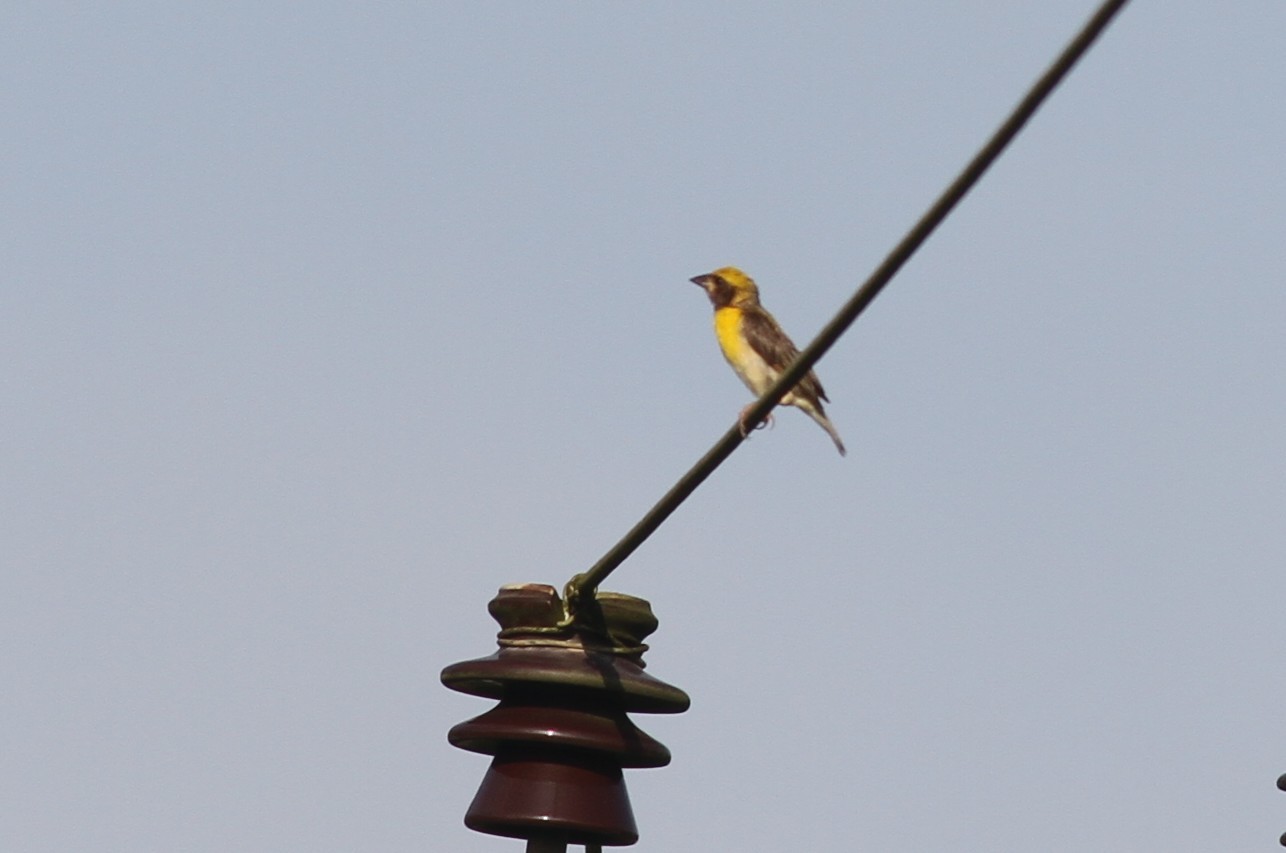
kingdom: Animalia
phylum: Chordata
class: Aves
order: Passeriformes
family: Ploceidae
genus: Ploceus
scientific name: Ploceus philippinus
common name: Baya weaver
